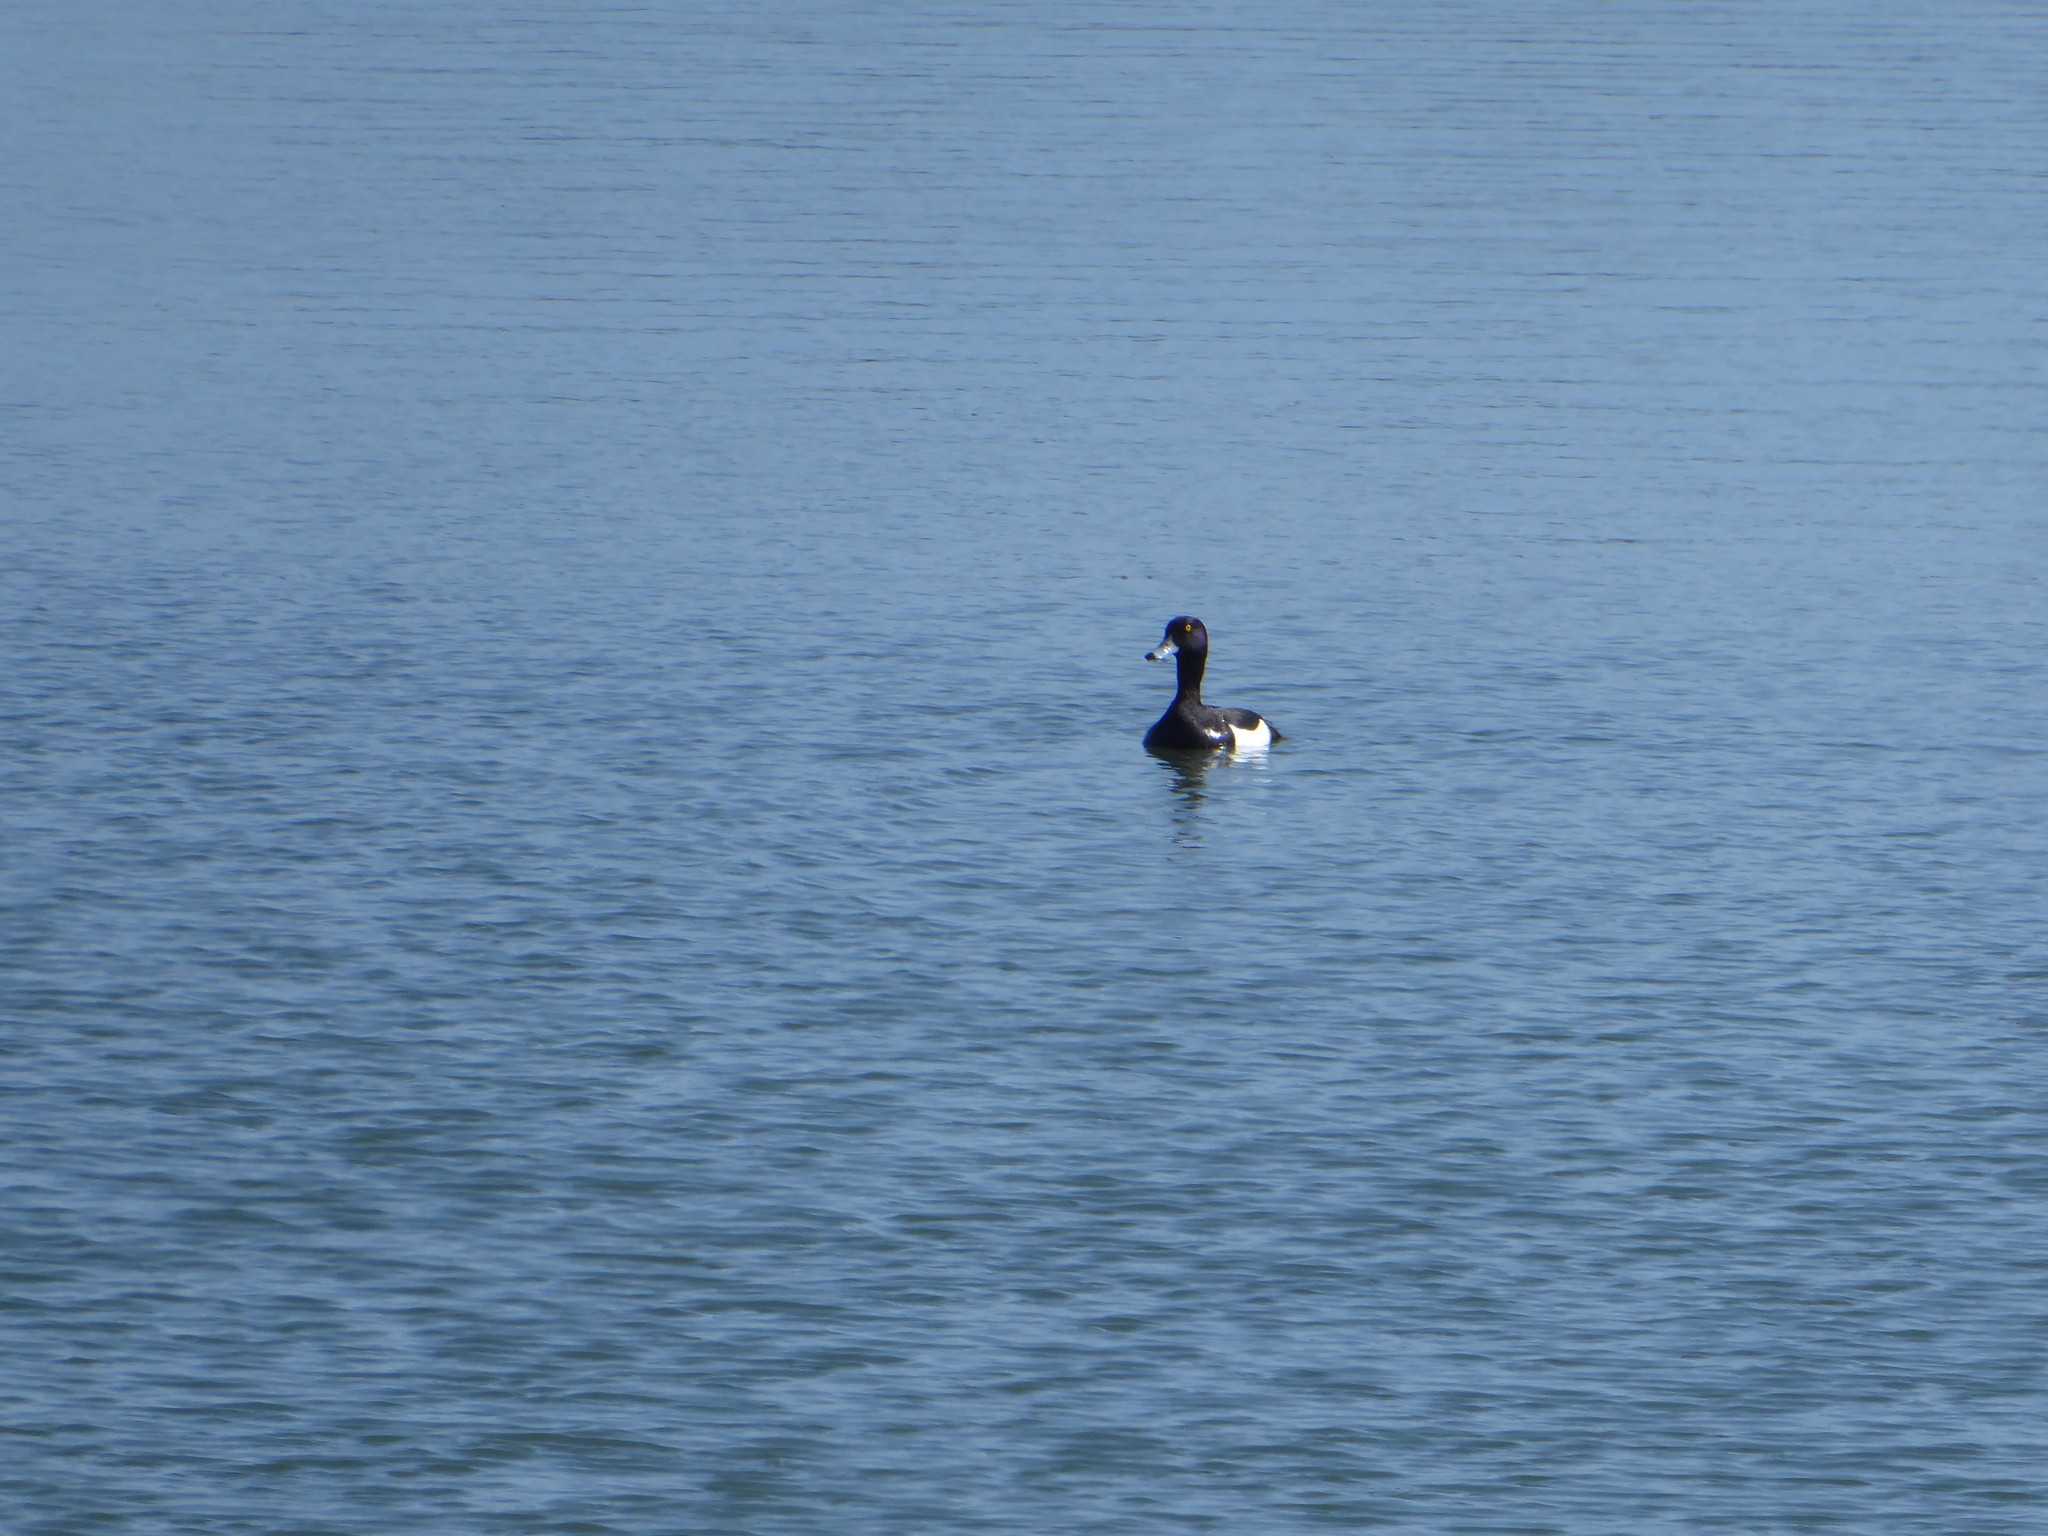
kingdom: Animalia
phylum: Chordata
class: Aves
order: Anseriformes
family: Anatidae
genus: Aythya
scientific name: Aythya fuligula
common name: Tufted duck
